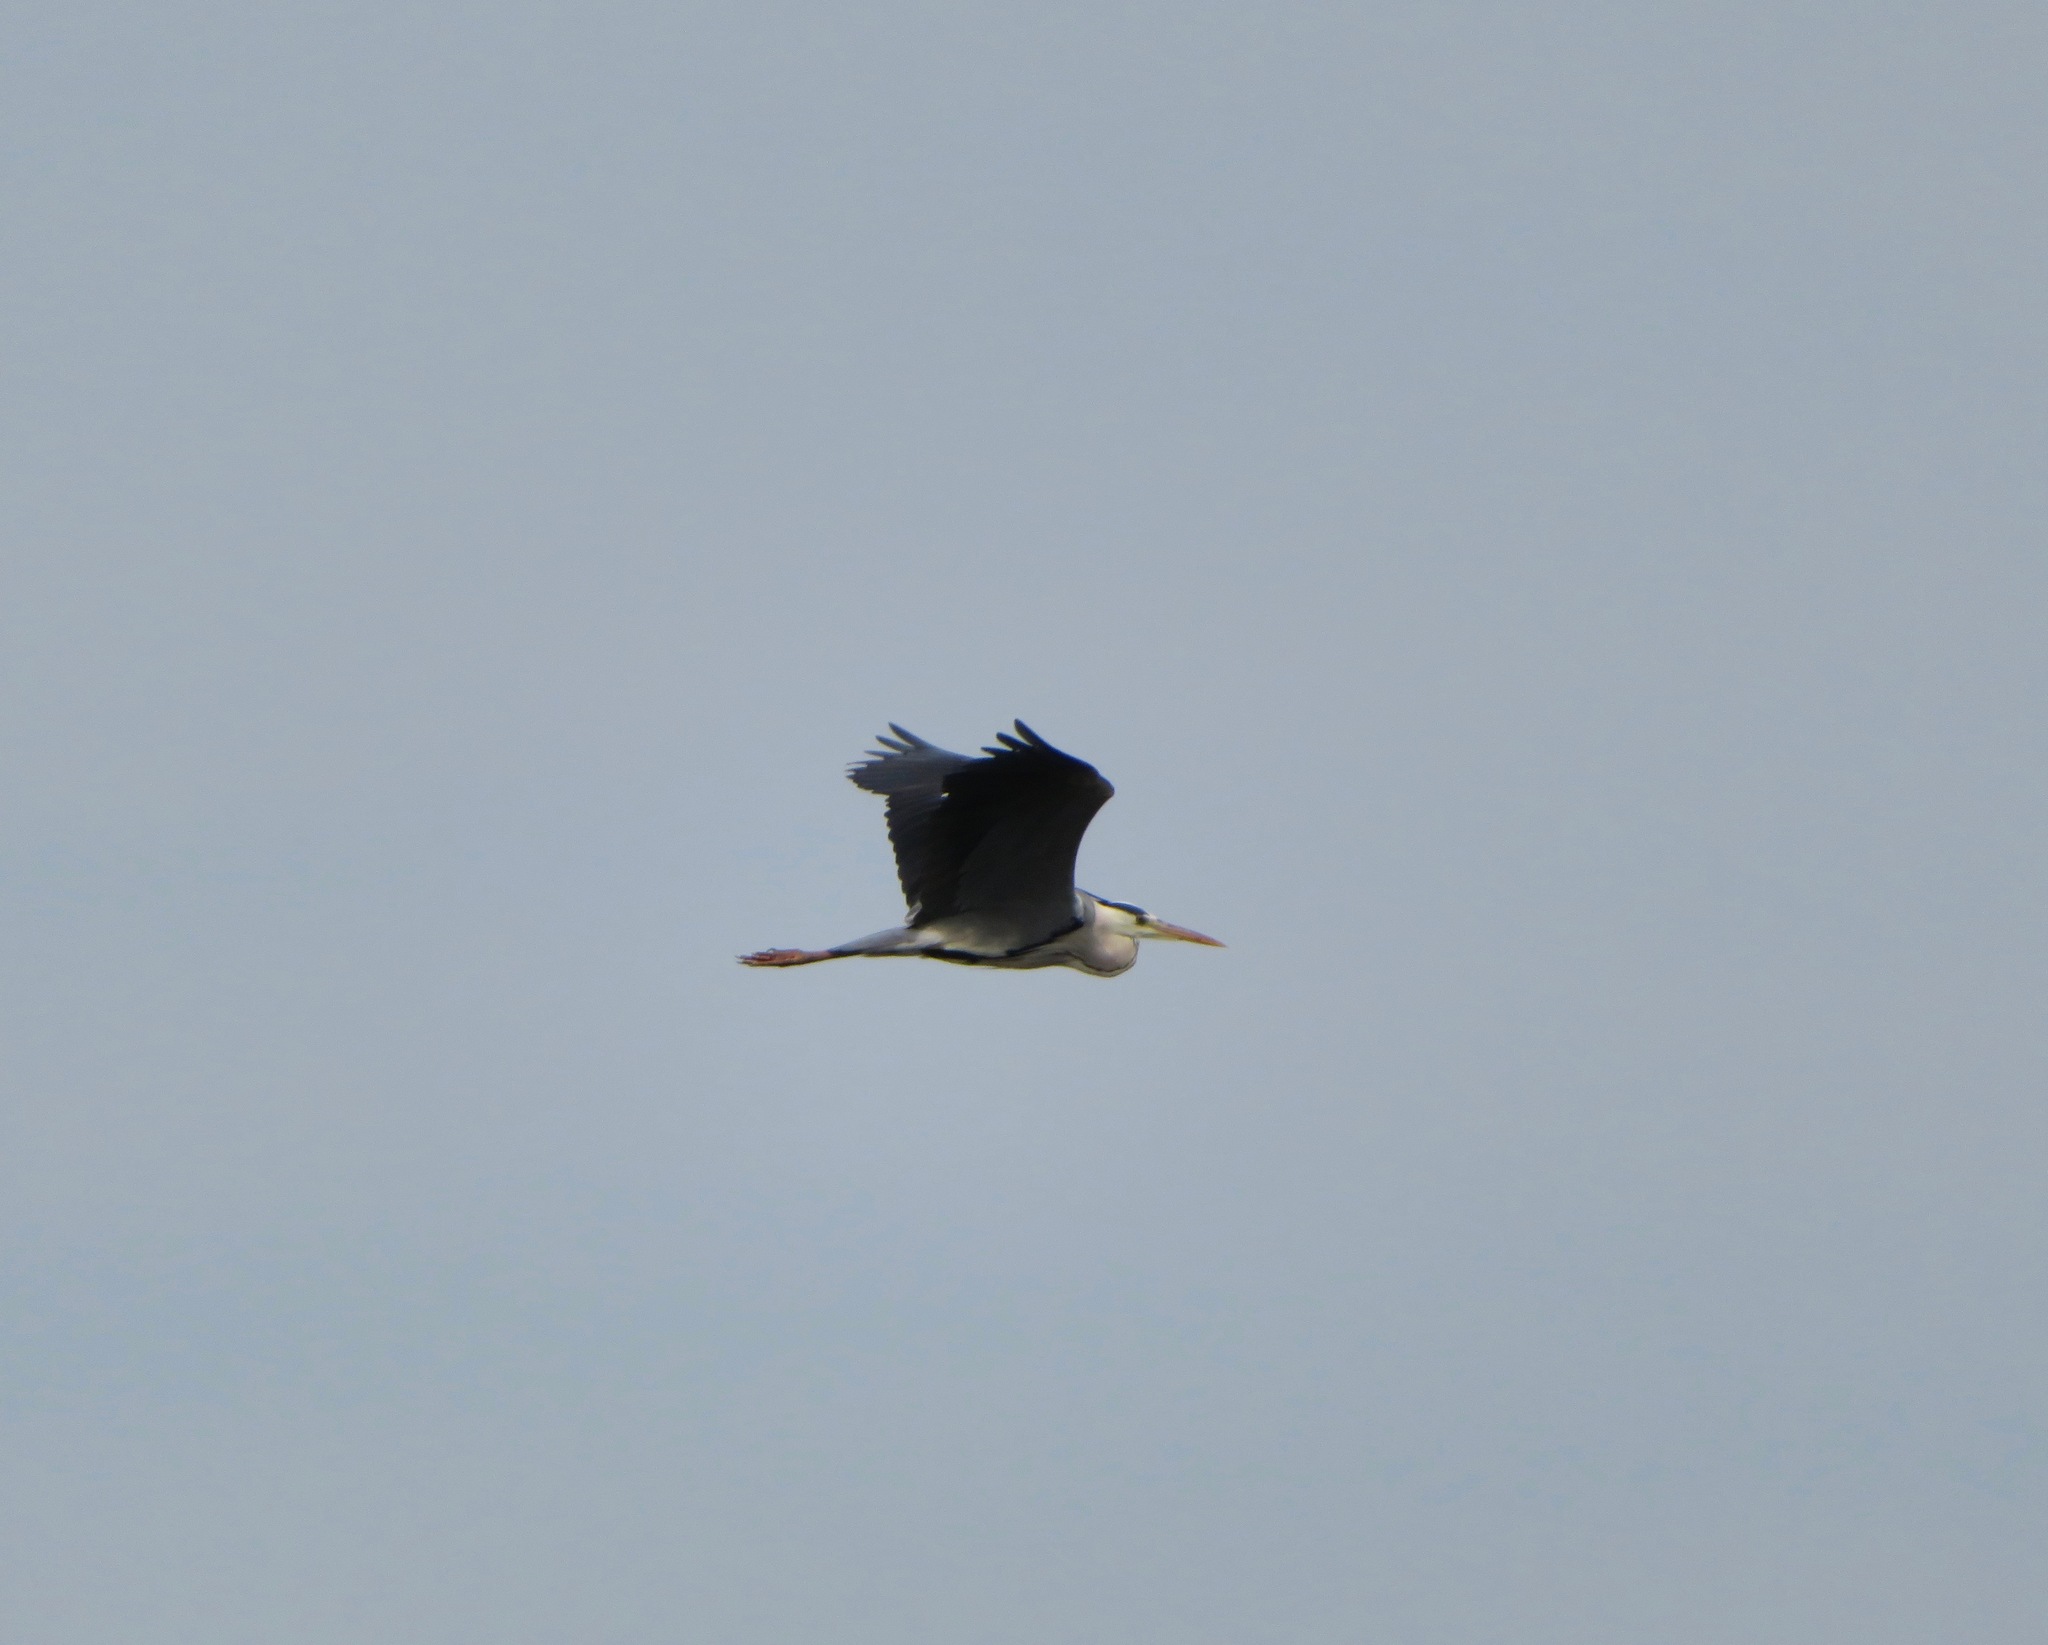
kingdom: Animalia
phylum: Chordata
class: Aves
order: Pelecaniformes
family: Ardeidae
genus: Ardea
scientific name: Ardea cinerea
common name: Grey heron
